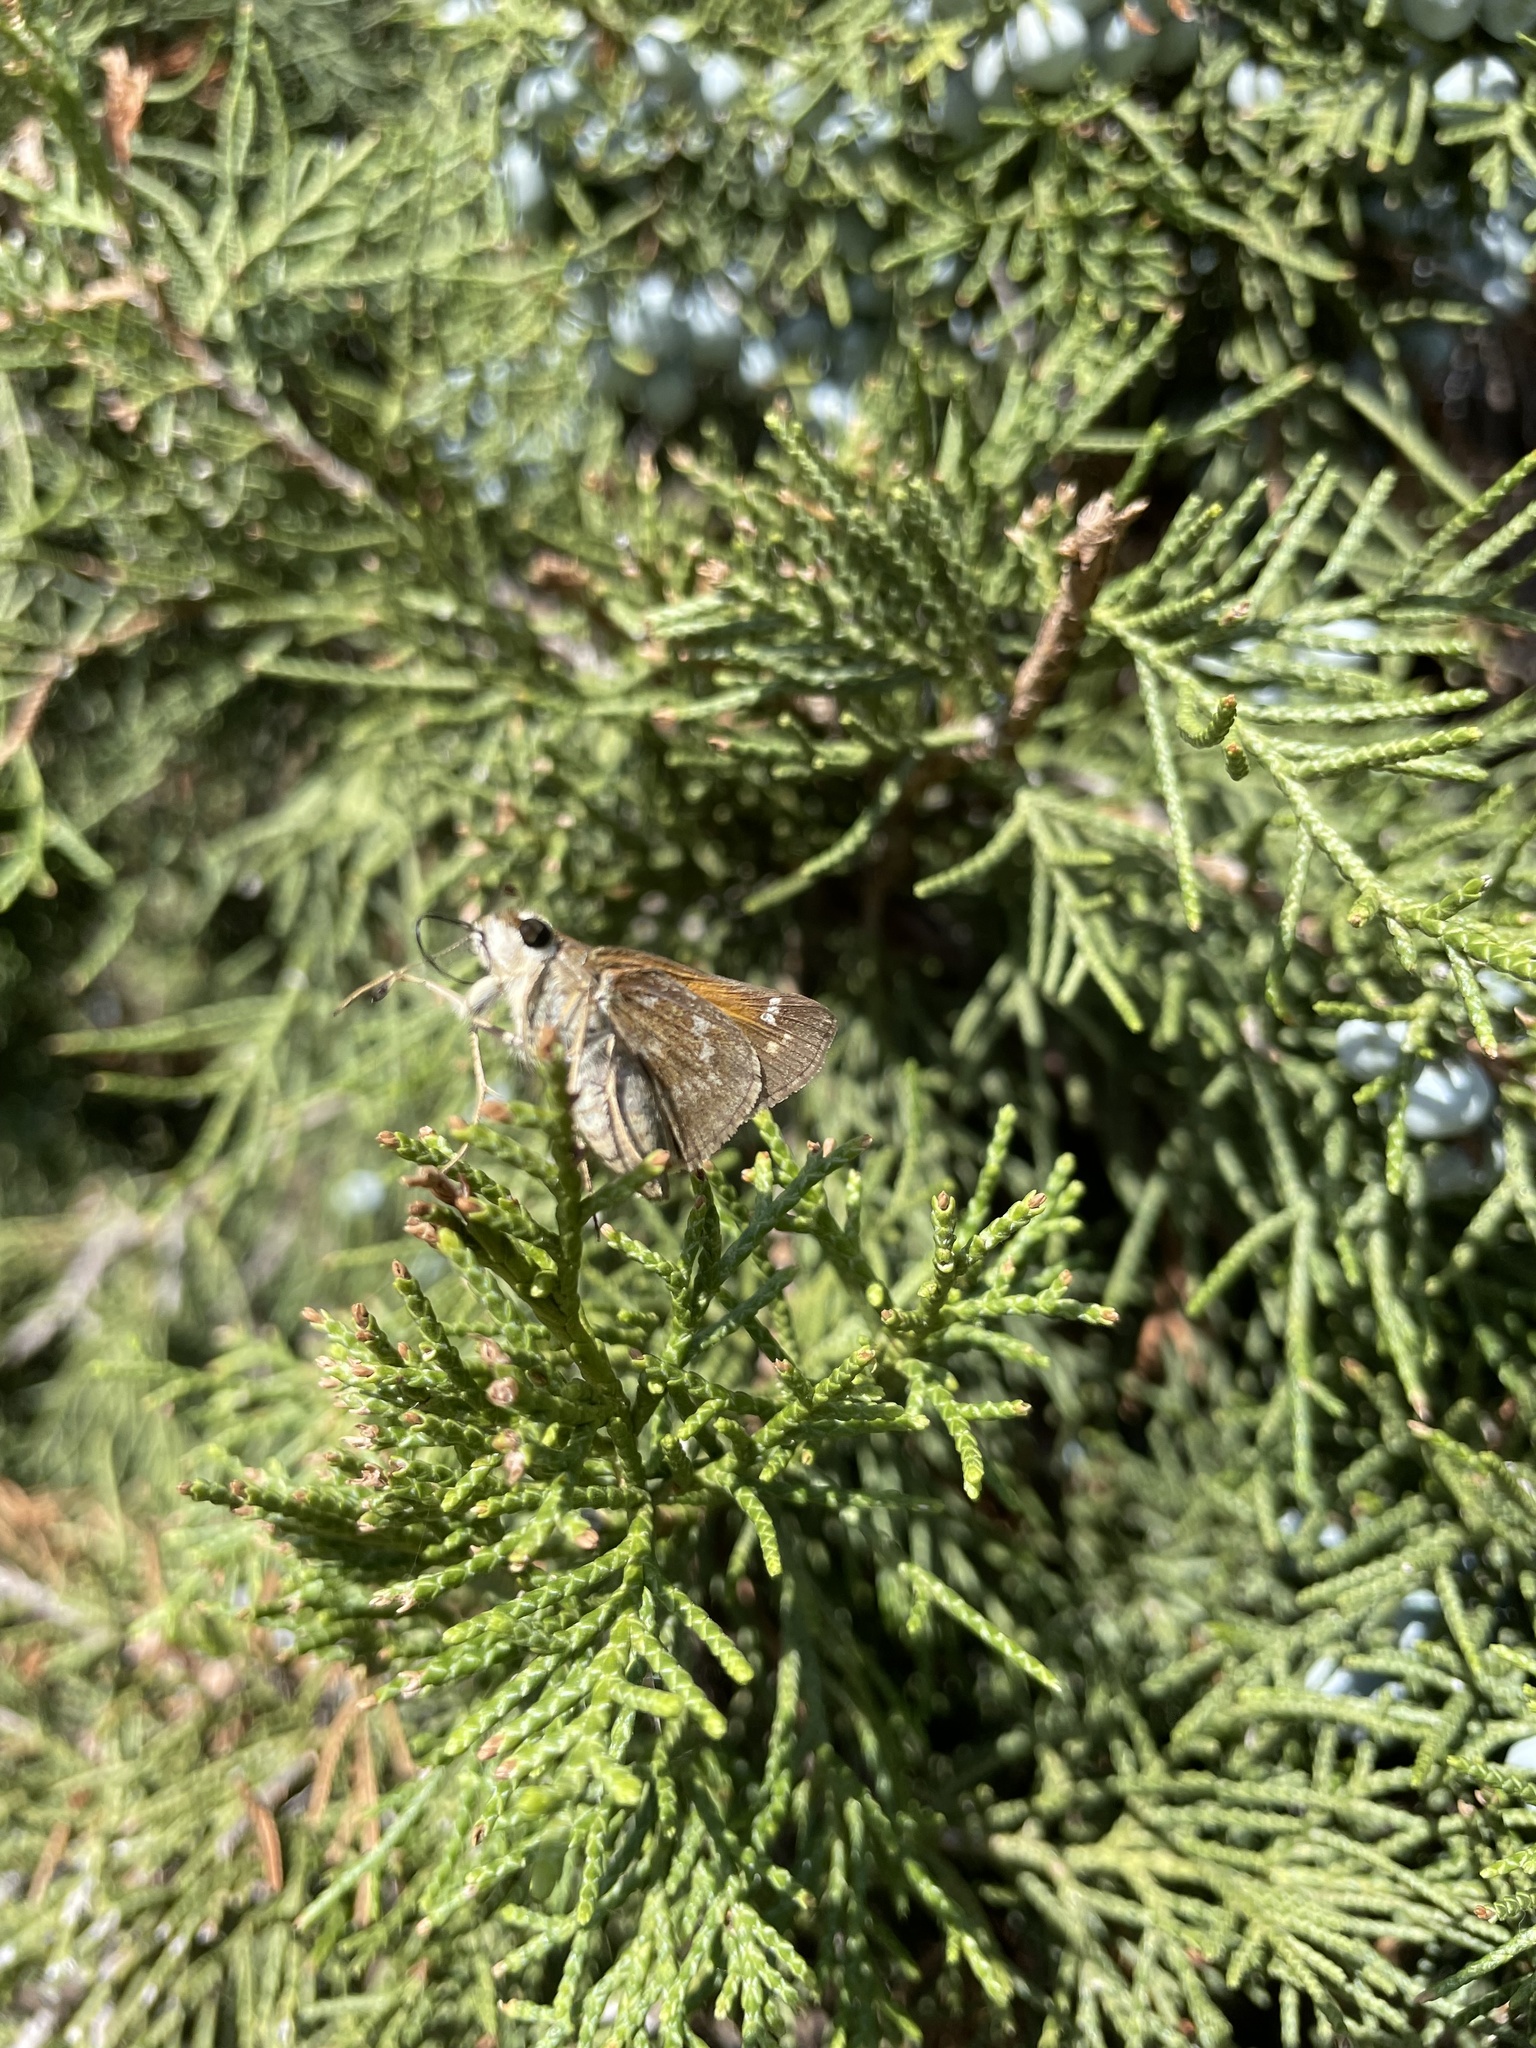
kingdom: Animalia
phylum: Arthropoda
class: Insecta
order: Lepidoptera
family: Hesperiidae
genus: Atalopedes
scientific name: Atalopedes
